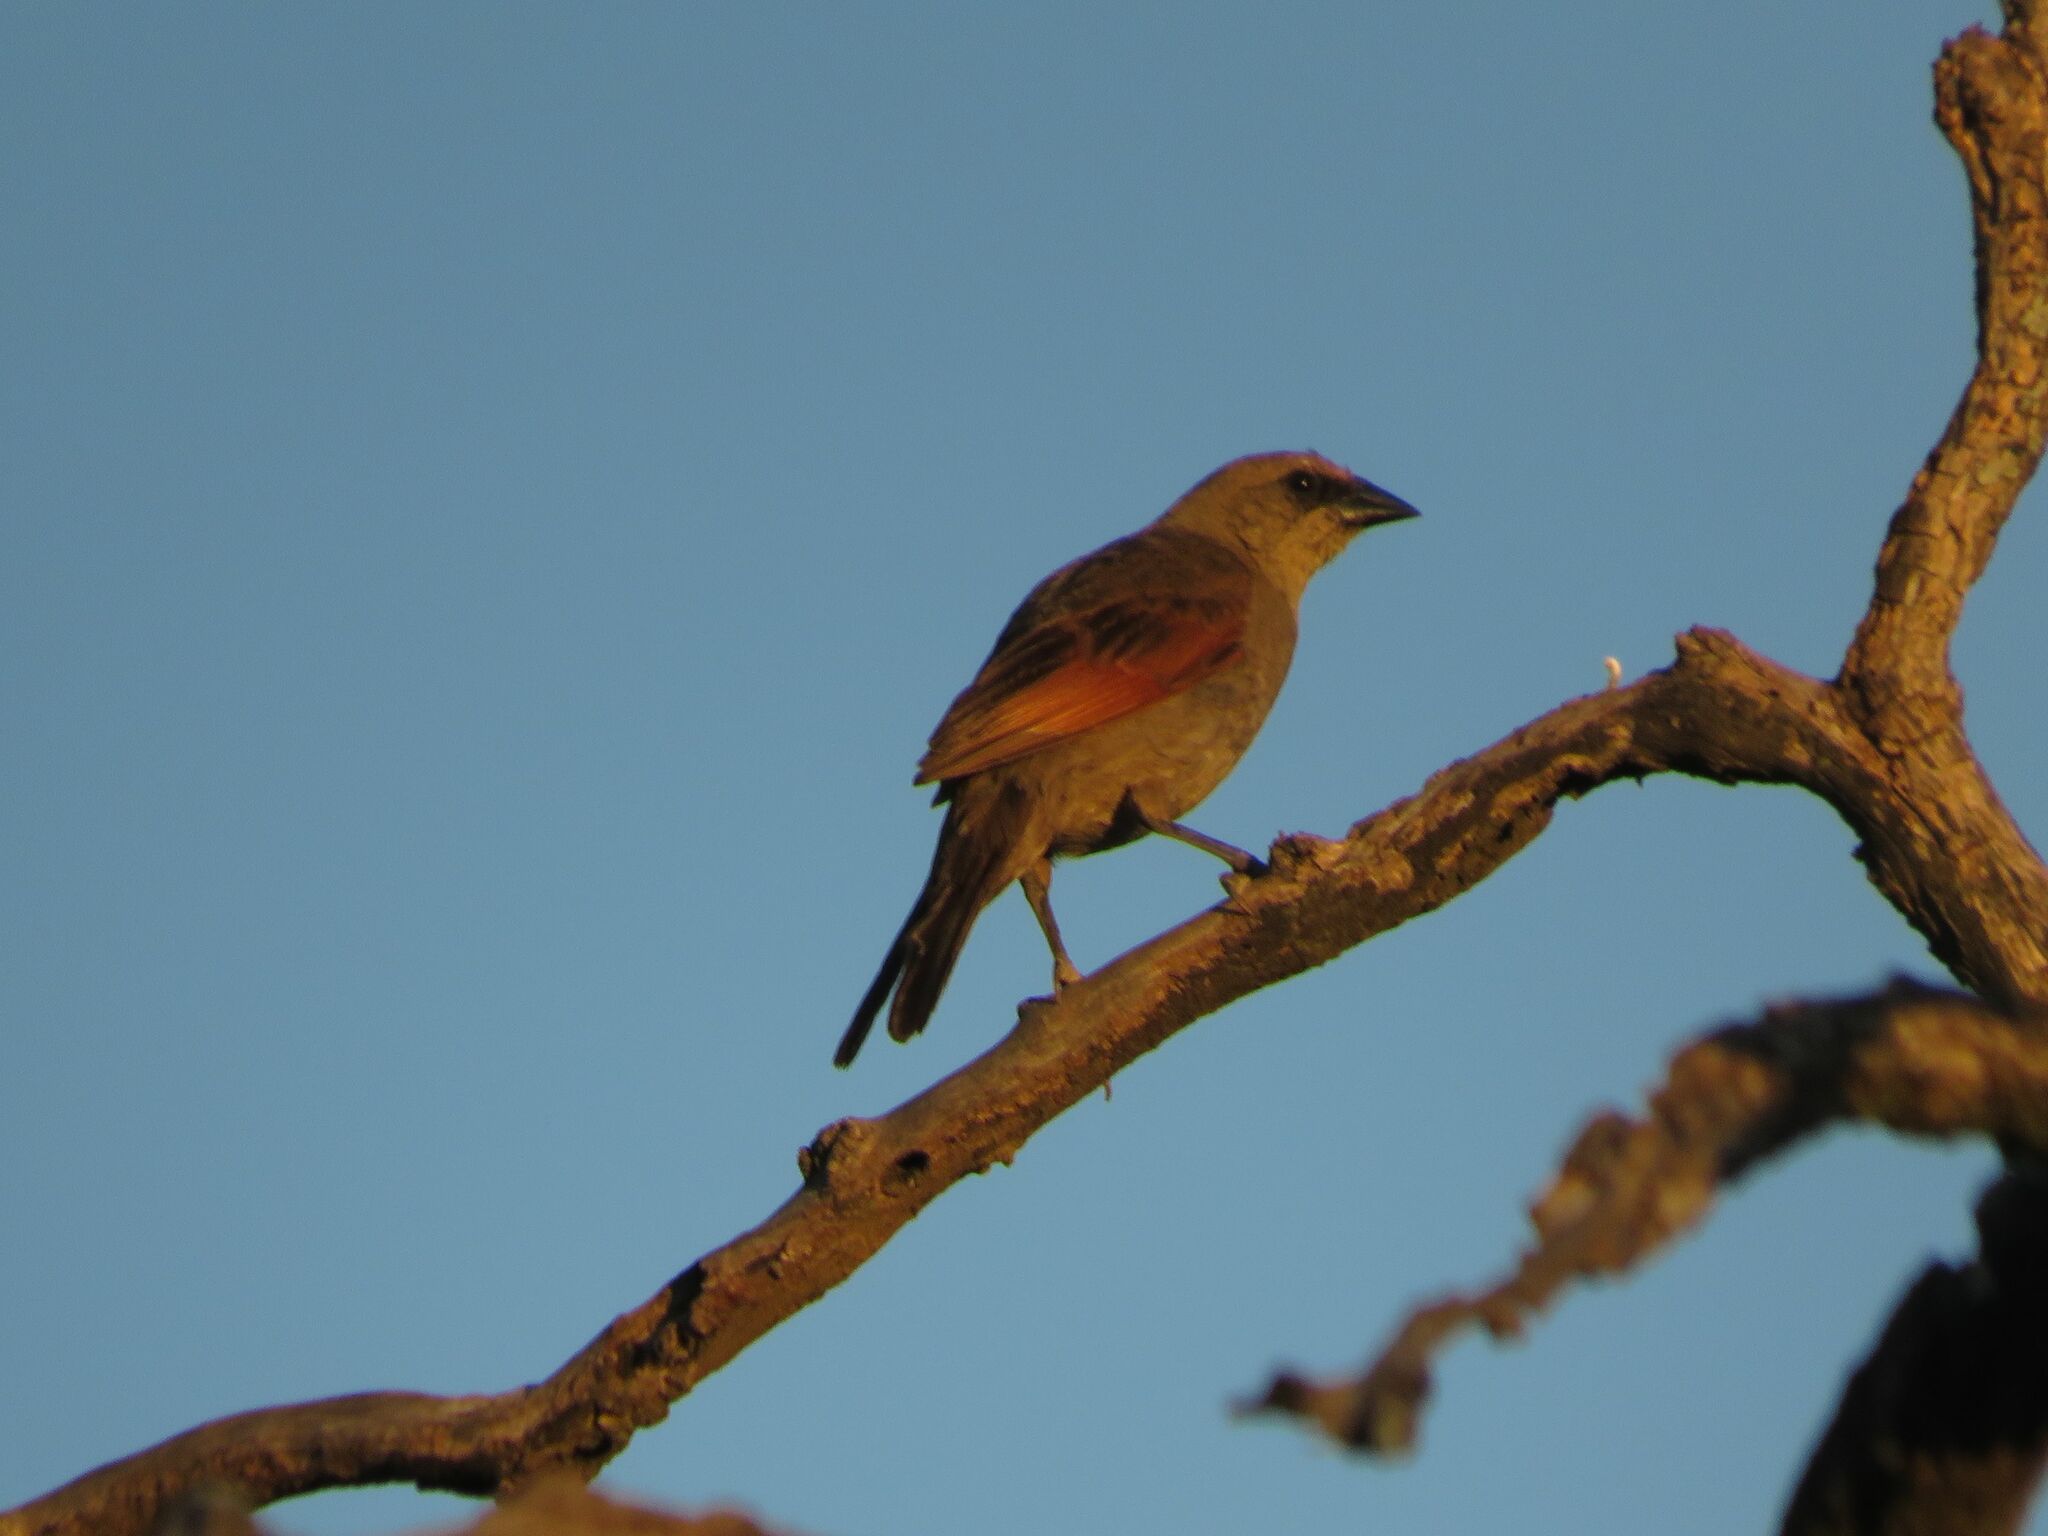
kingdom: Animalia
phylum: Chordata
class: Aves
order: Passeriformes
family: Icteridae
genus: Agelaioides
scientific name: Agelaioides badius
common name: Baywing
